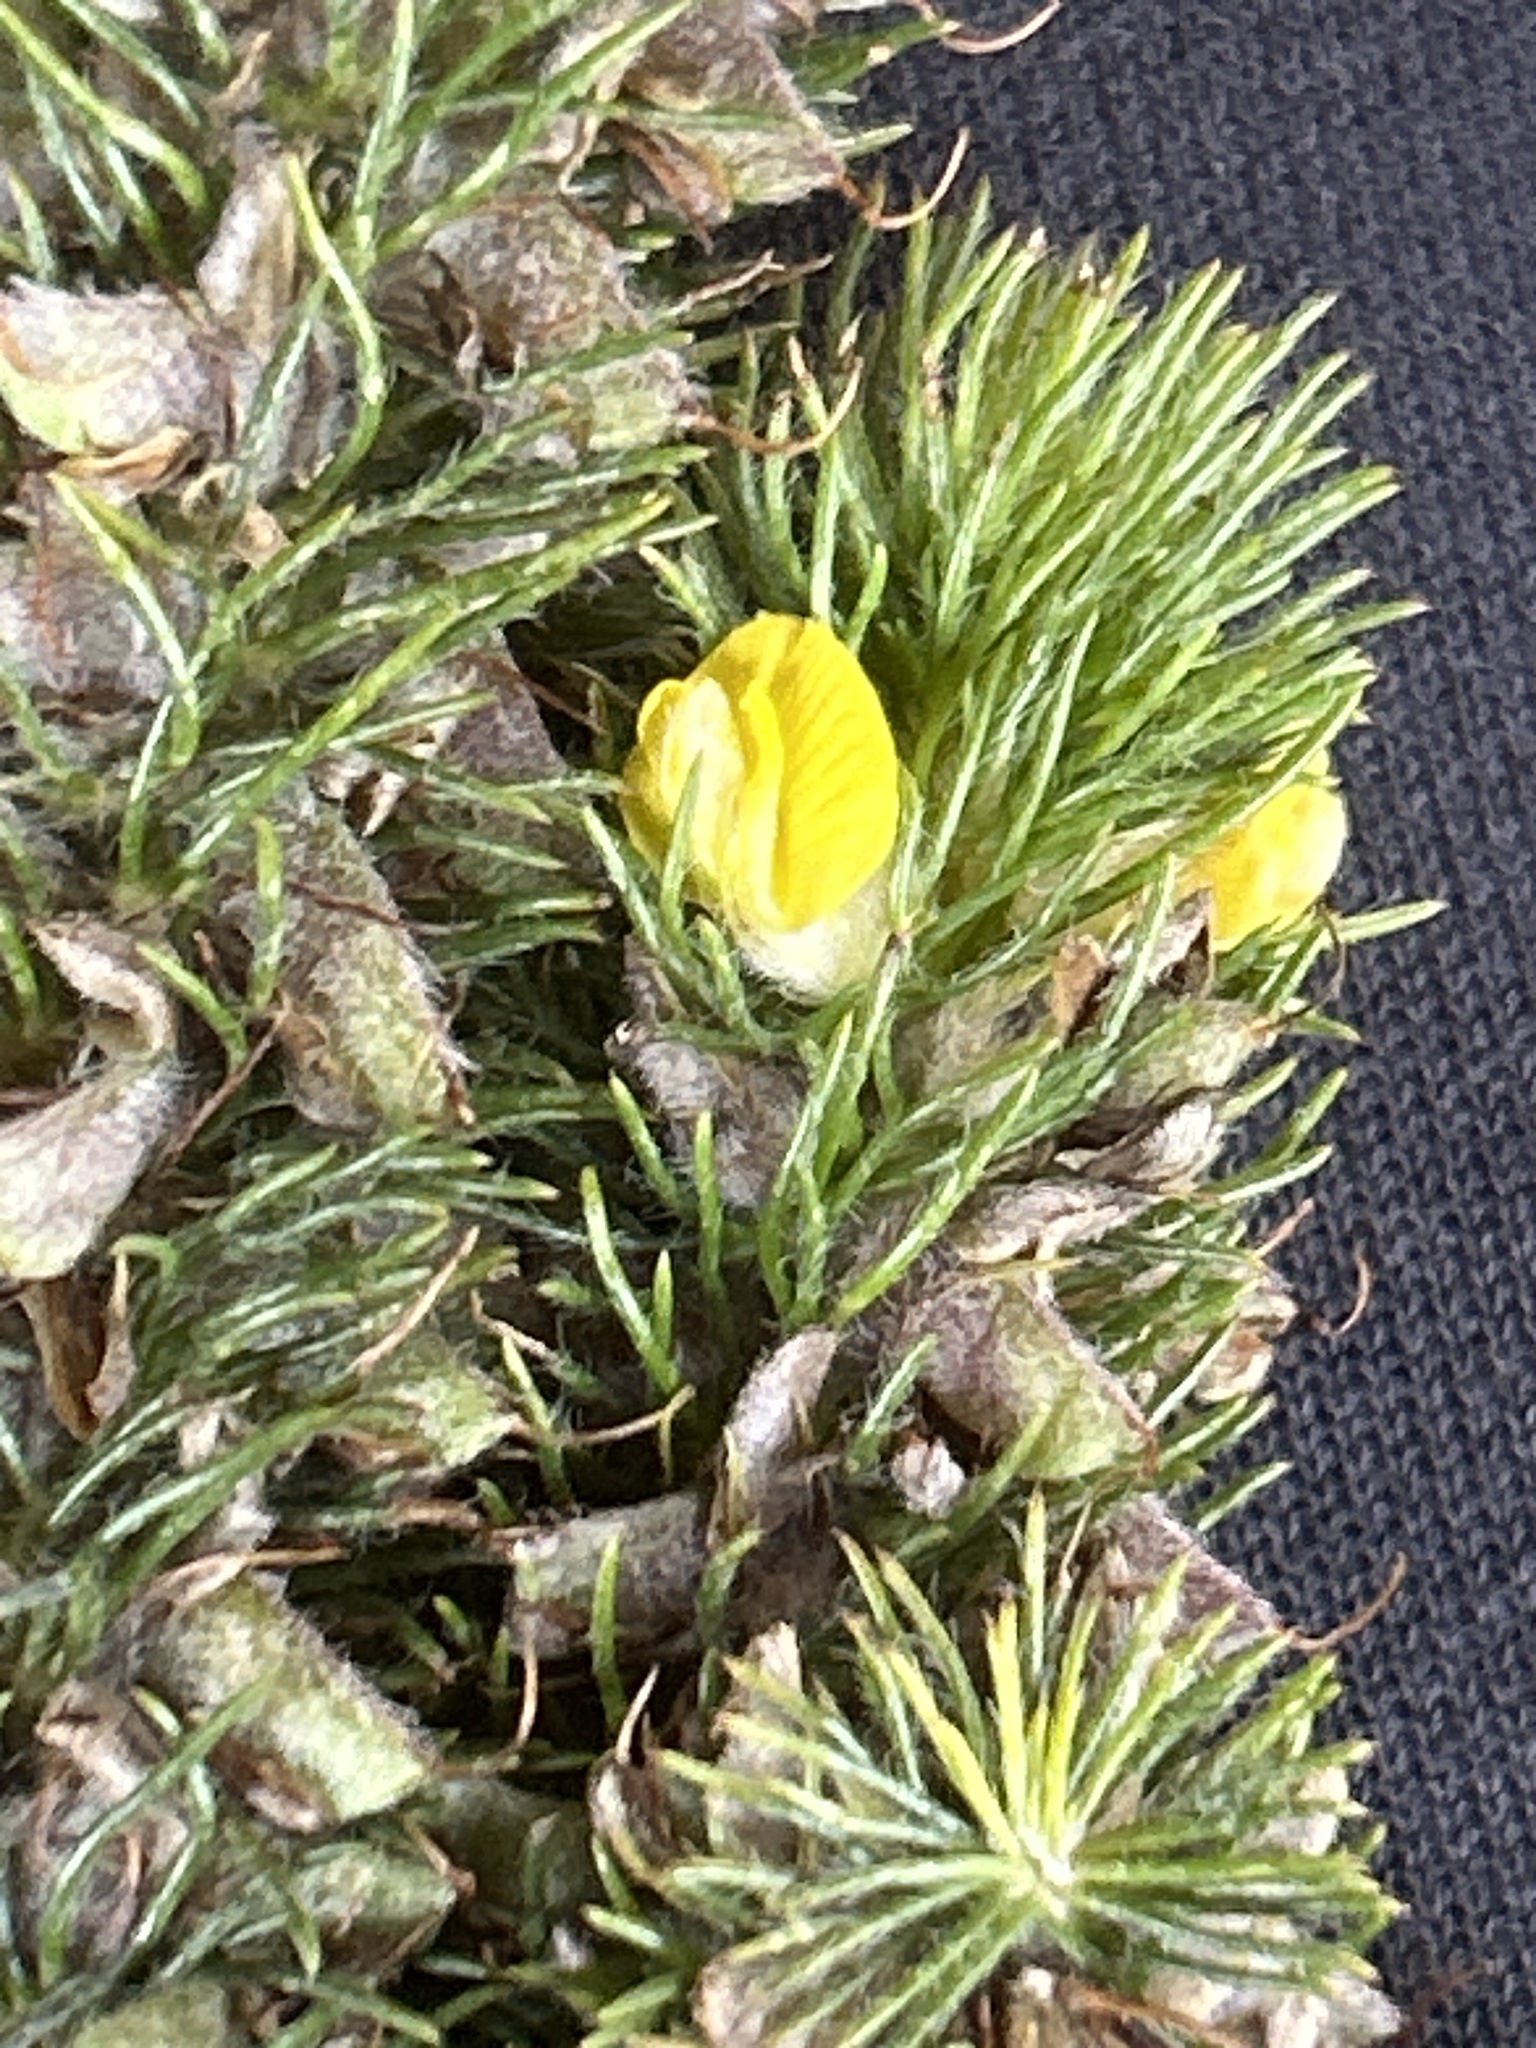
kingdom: Plantae
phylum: Tracheophyta
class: Magnoliopsida
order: Fabales
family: Fabaceae
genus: Aspalathus
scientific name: Aspalathus alopecurus
